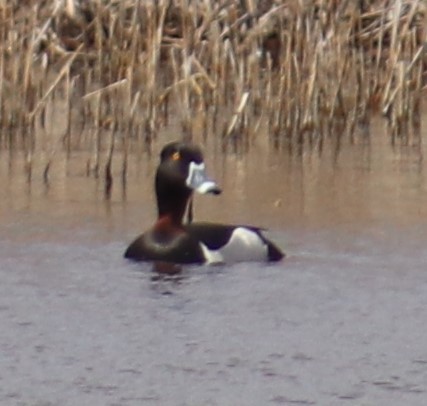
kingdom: Animalia
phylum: Chordata
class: Aves
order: Anseriformes
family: Anatidae
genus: Aythya
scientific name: Aythya collaris
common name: Ring-necked duck
